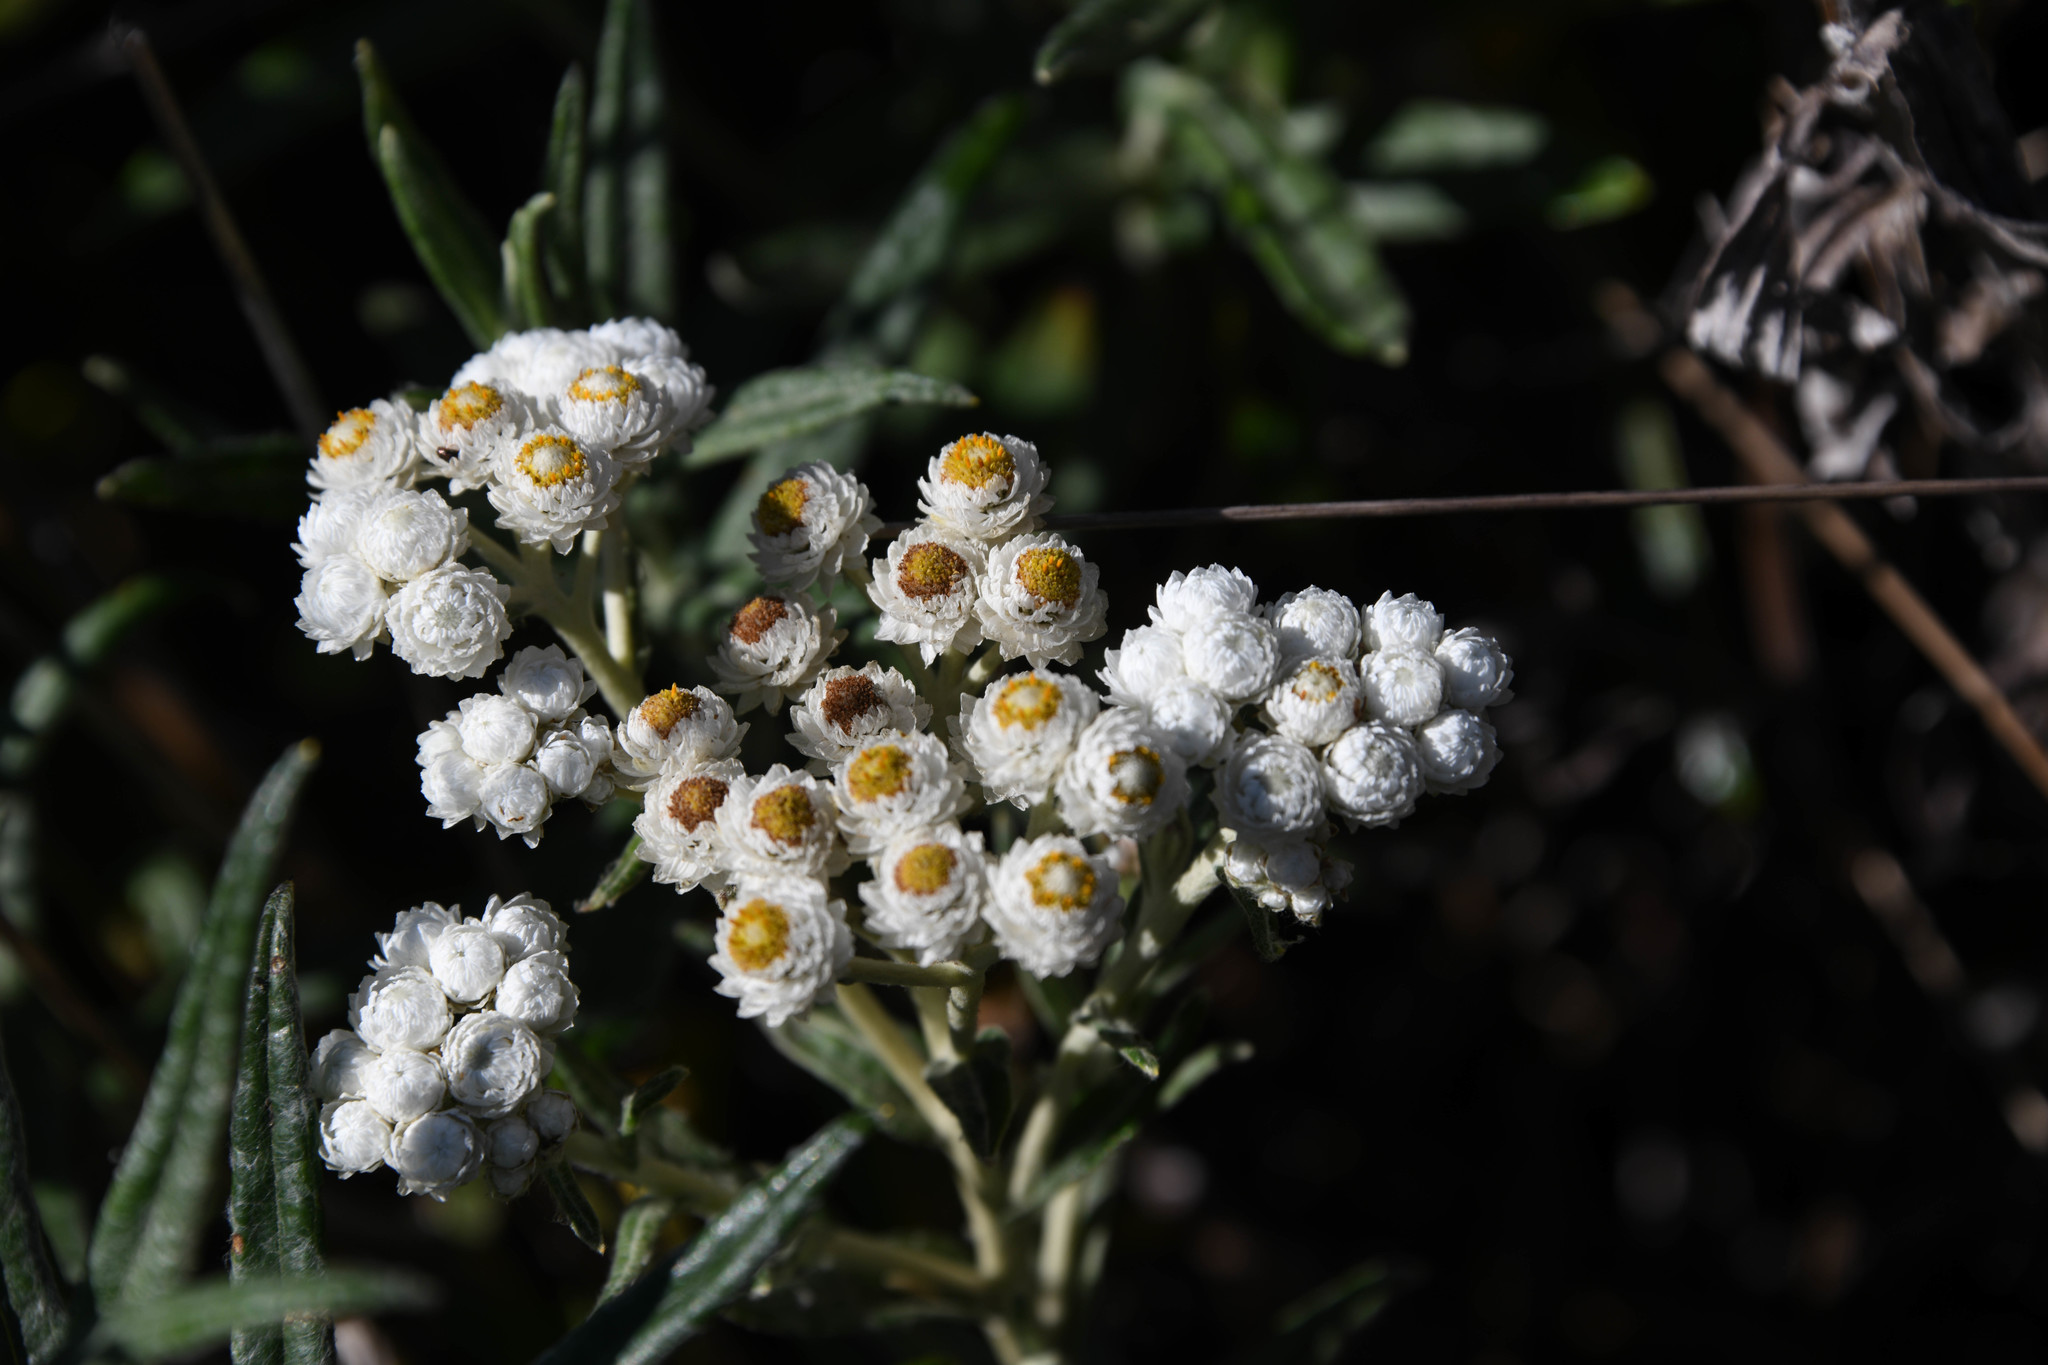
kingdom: Plantae
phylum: Tracheophyta
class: Magnoliopsida
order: Asterales
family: Asteraceae
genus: Anaphalis
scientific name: Anaphalis margaritacea
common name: Pearly everlasting
